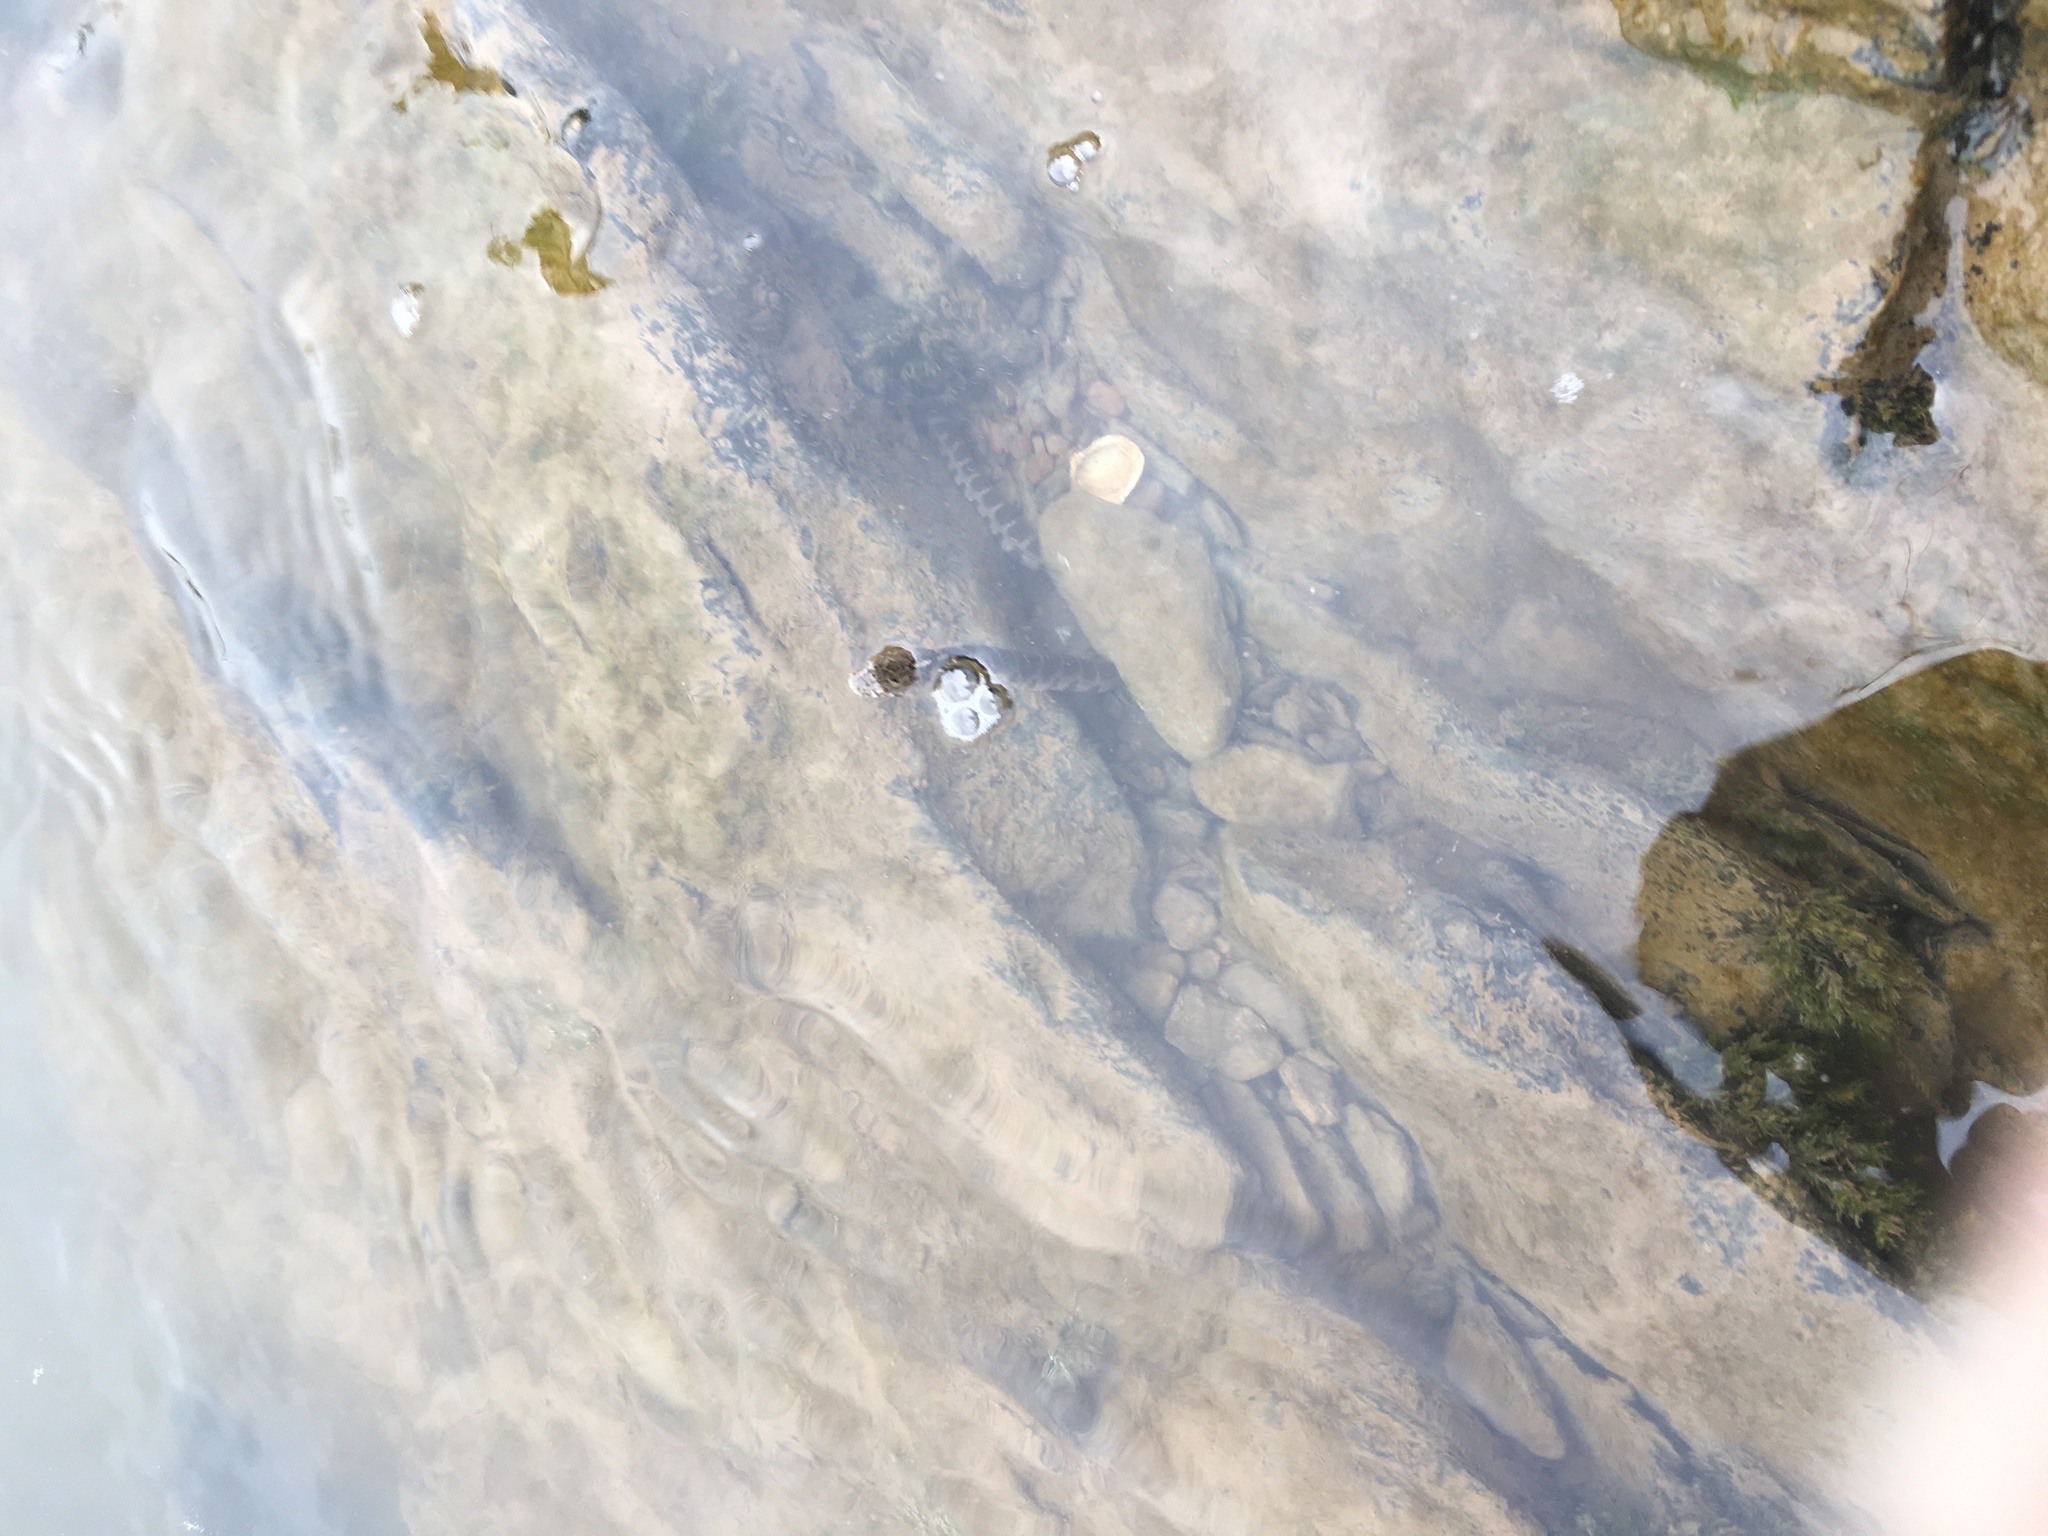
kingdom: Animalia
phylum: Chordata
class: Squamata
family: Colubridae
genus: Nerodia
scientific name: Nerodia sipedon
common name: Northern water snake
